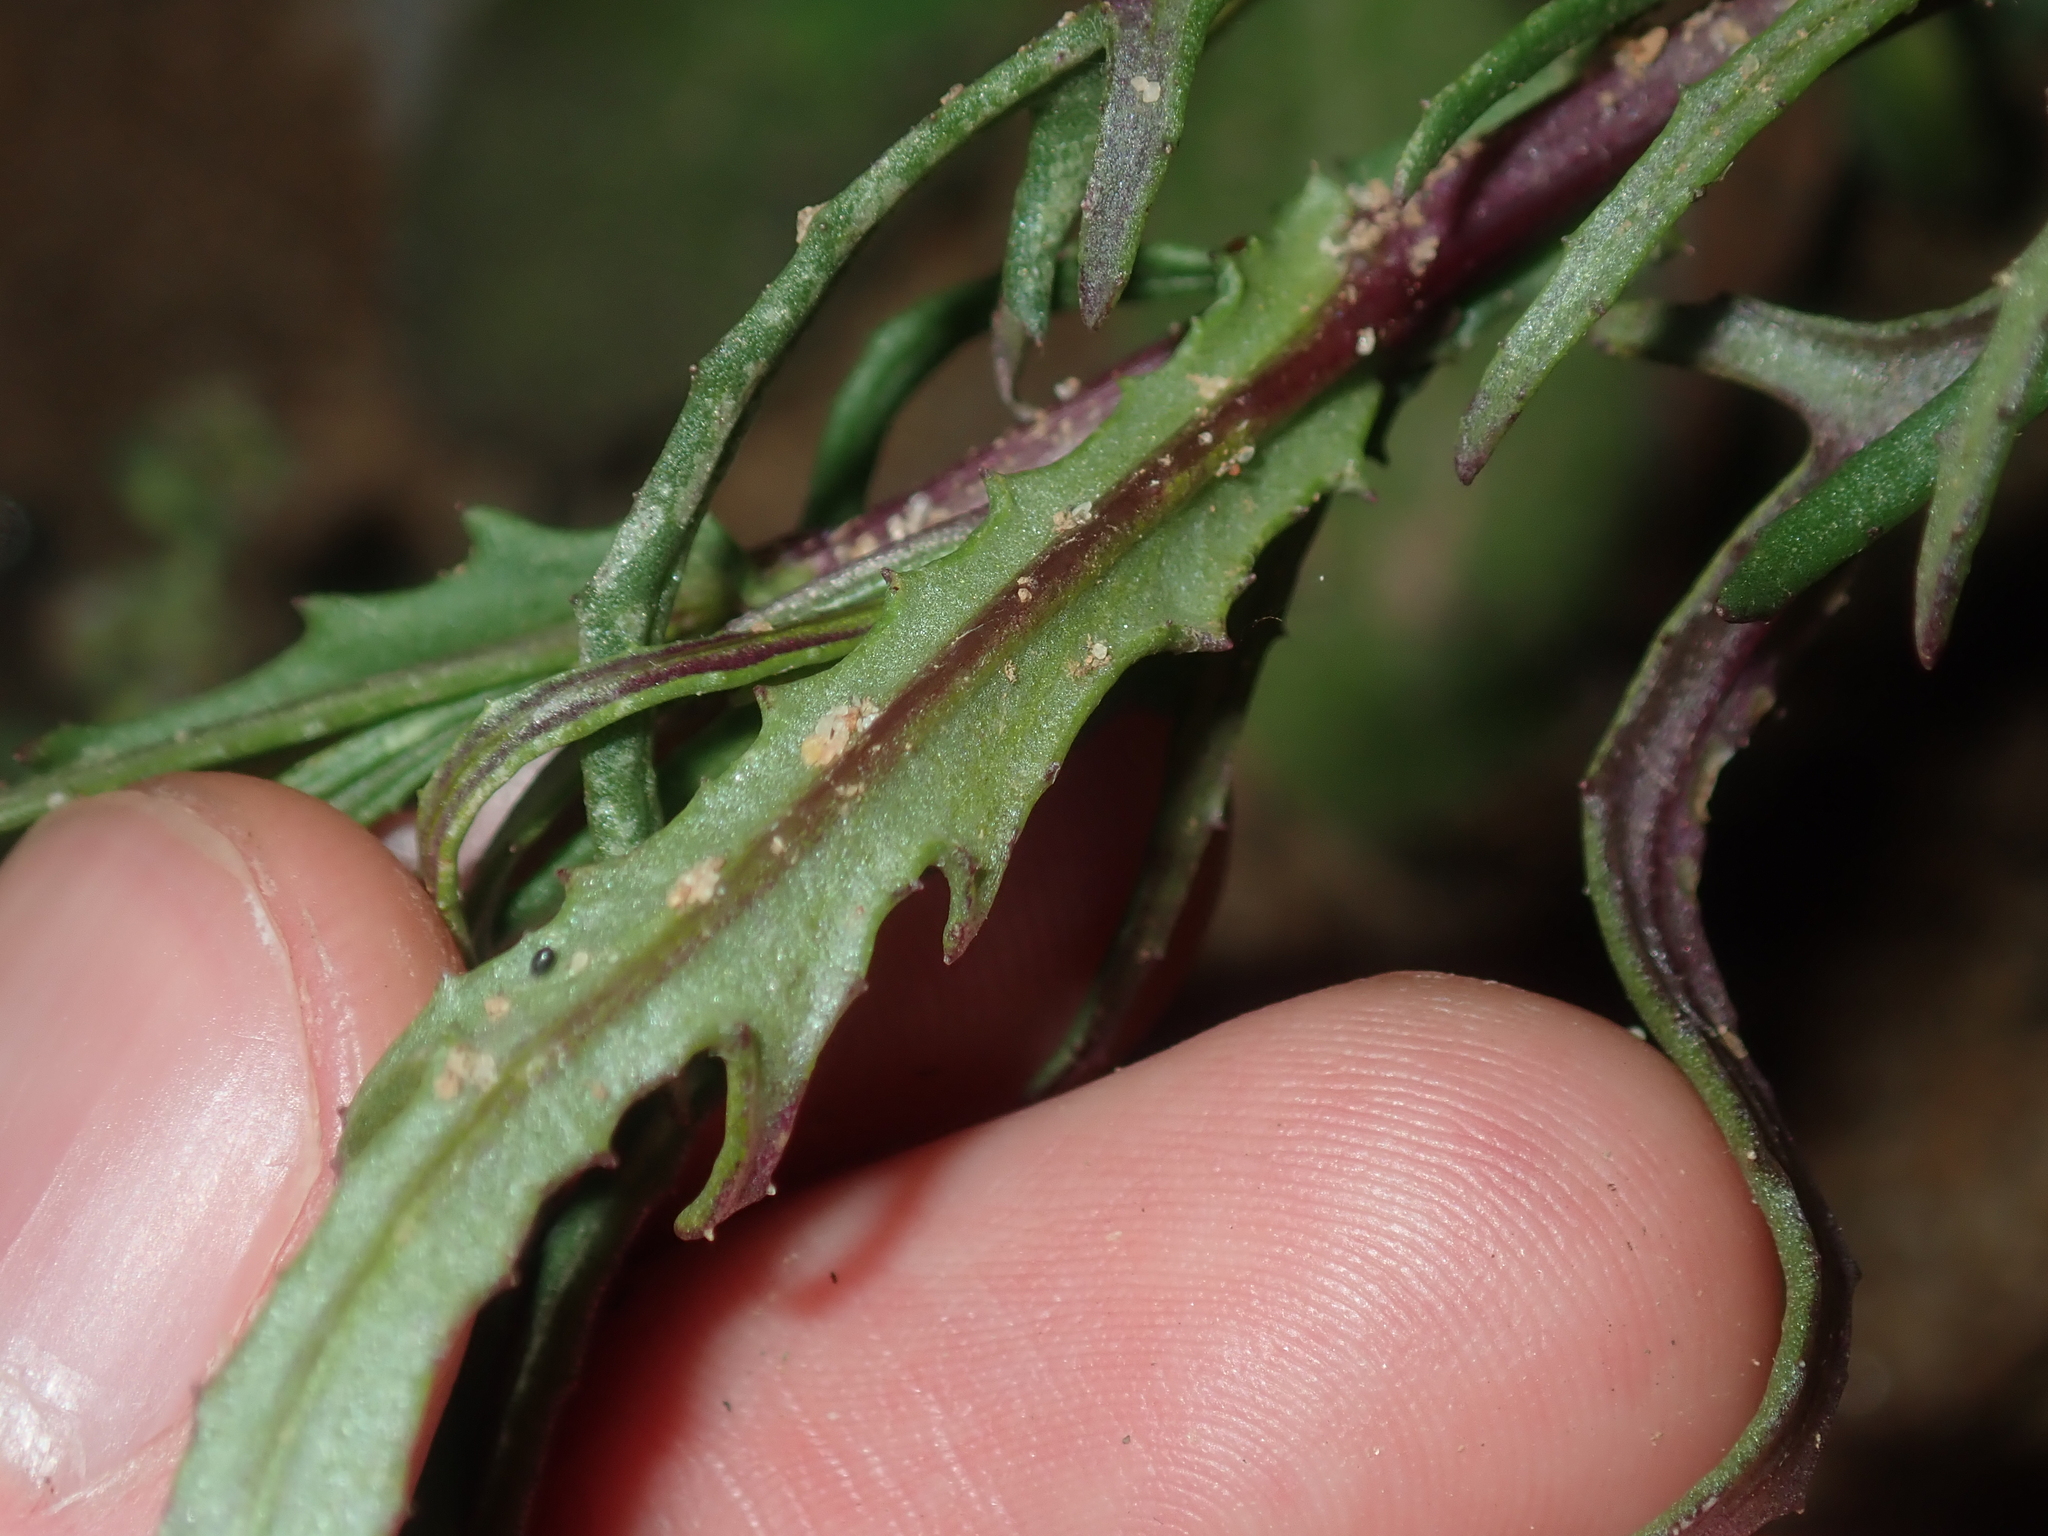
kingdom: Plantae
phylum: Tracheophyta
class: Magnoliopsida
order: Asterales
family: Asteraceae
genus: Senecio
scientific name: Senecio glossanthus
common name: Slender groundsel
